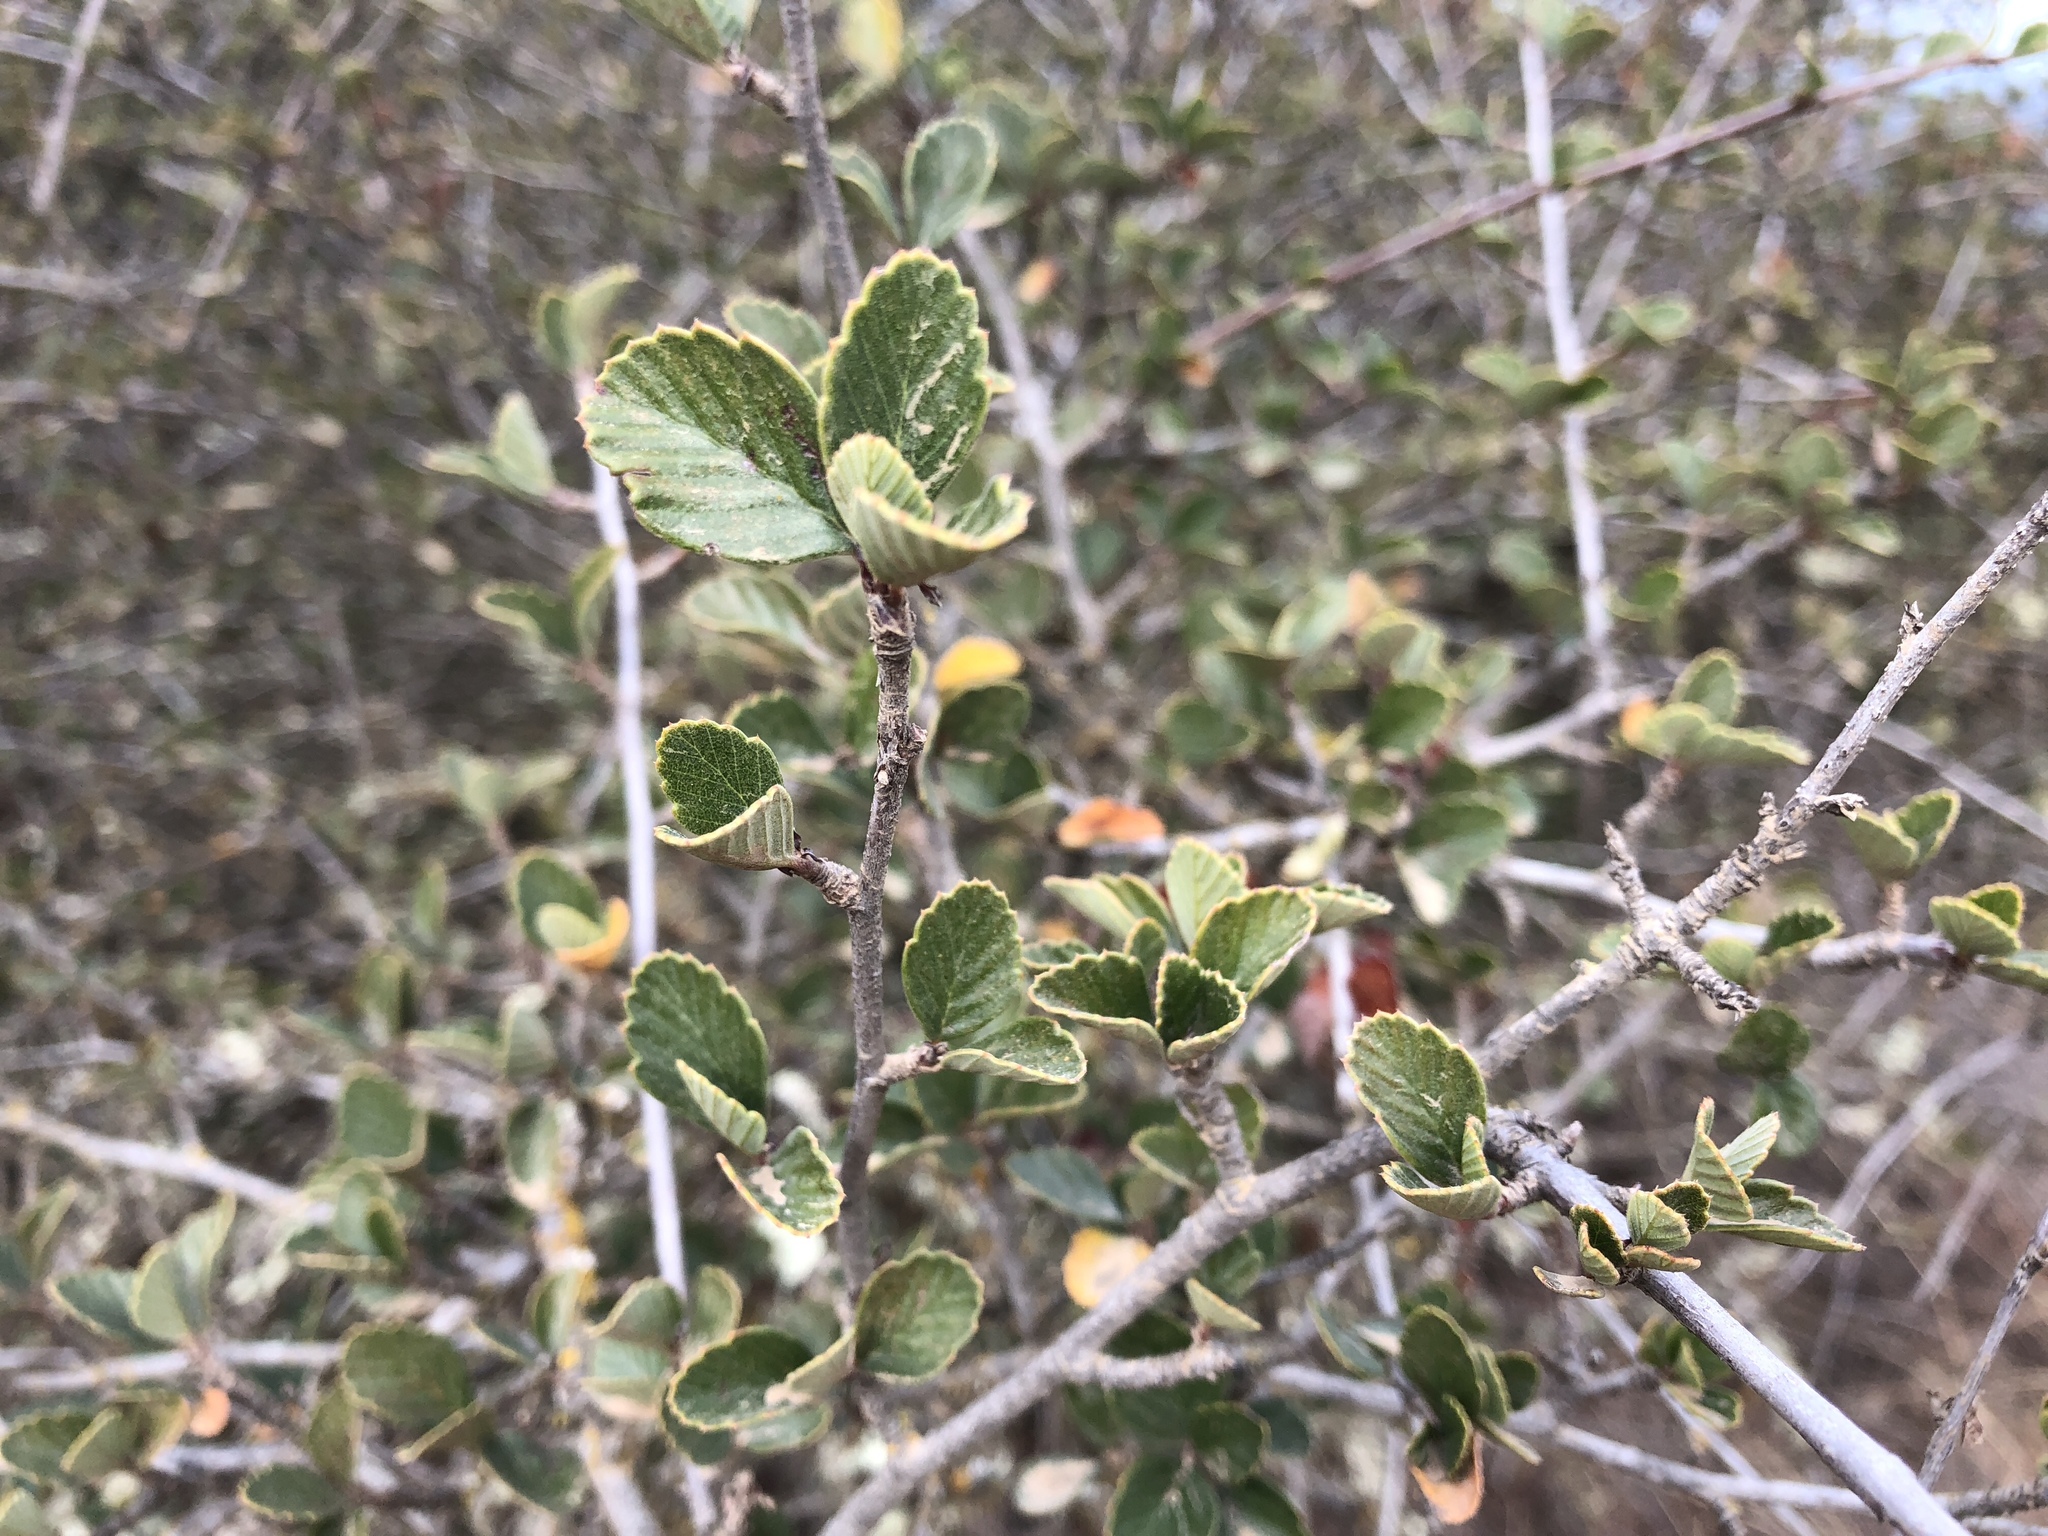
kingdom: Plantae
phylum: Tracheophyta
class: Magnoliopsida
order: Rosales
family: Rosaceae
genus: Cercocarpus
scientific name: Cercocarpus betuloides
